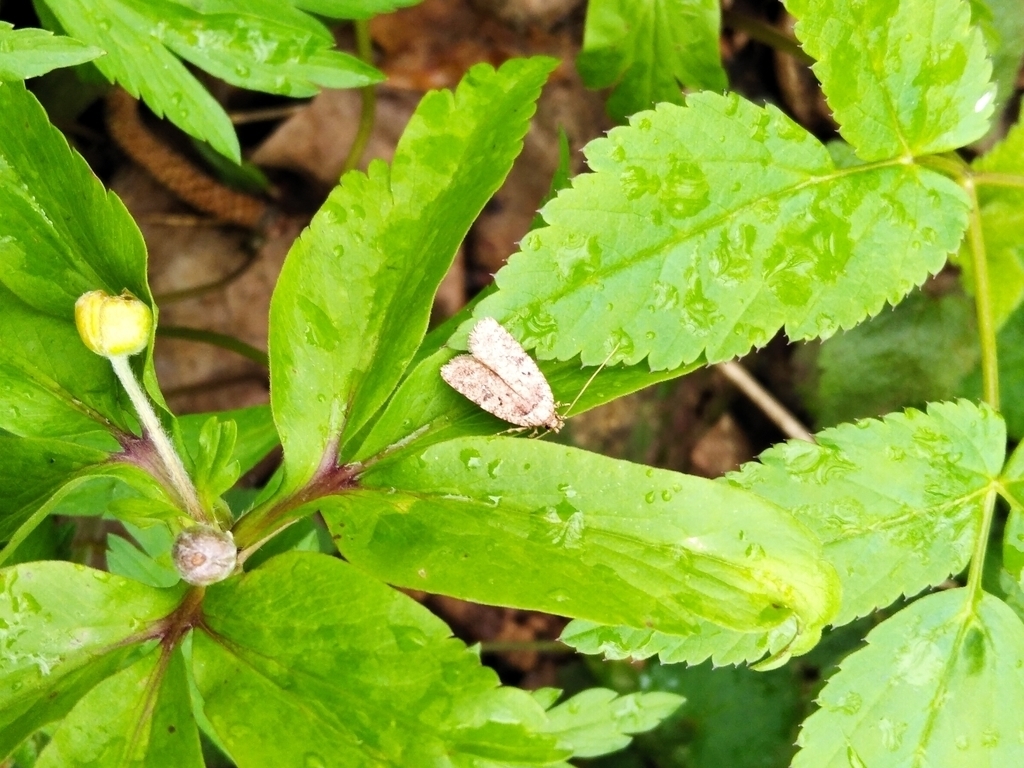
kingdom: Animalia
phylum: Arthropoda
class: Insecta
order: Lepidoptera
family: Depressariidae
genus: Agonopterix
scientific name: Agonopterix
